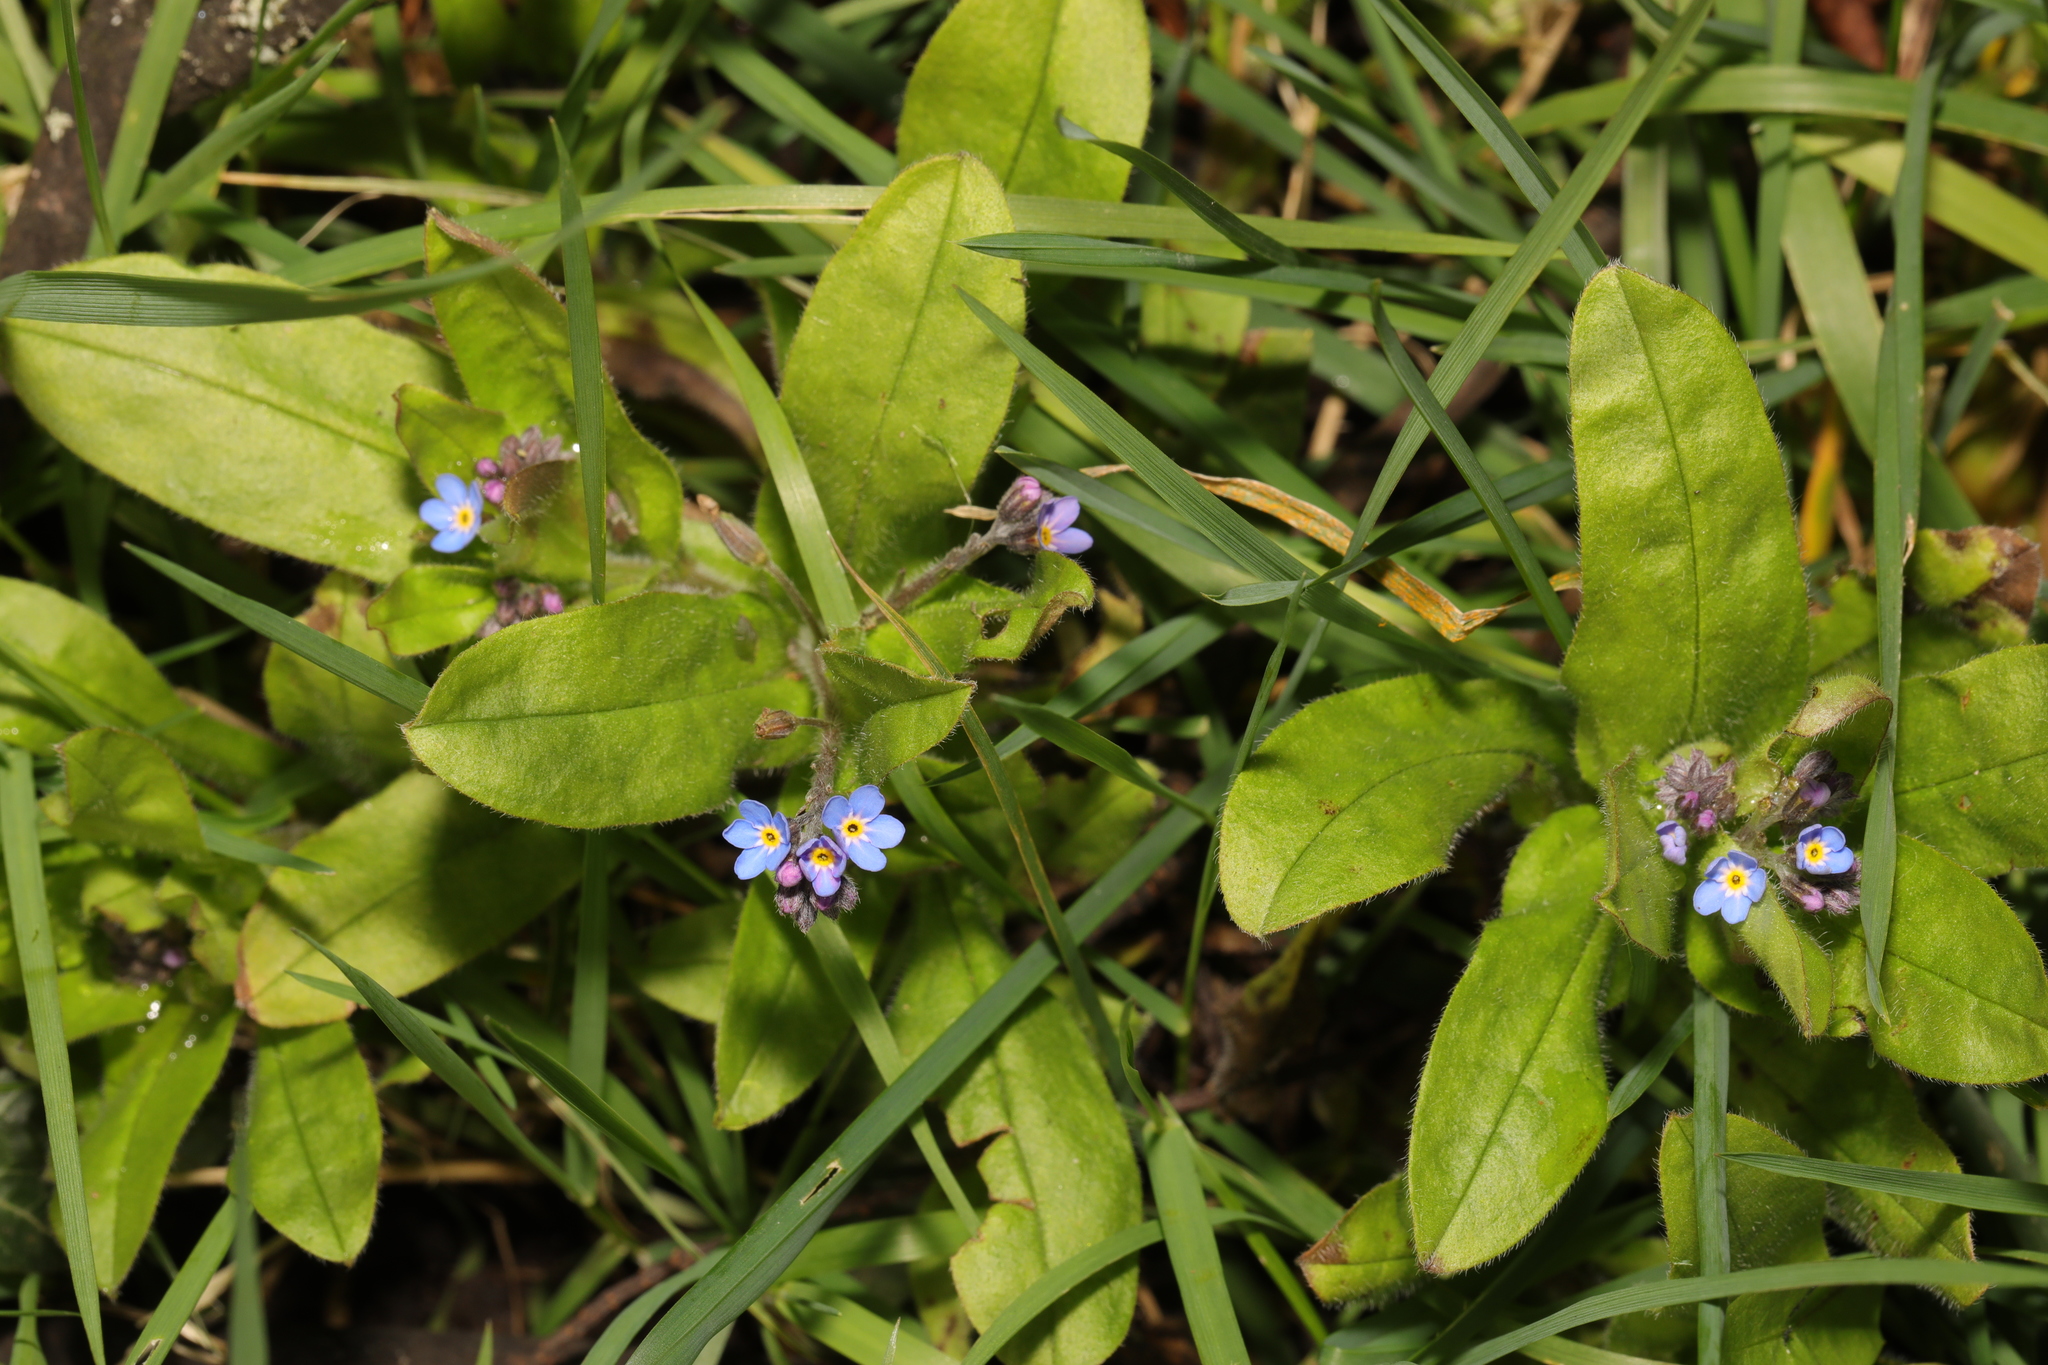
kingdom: Plantae
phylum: Tracheophyta
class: Magnoliopsida
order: Boraginales
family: Boraginaceae
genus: Myosotis
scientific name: Myosotis sylvatica
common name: Wood forget-me-not
